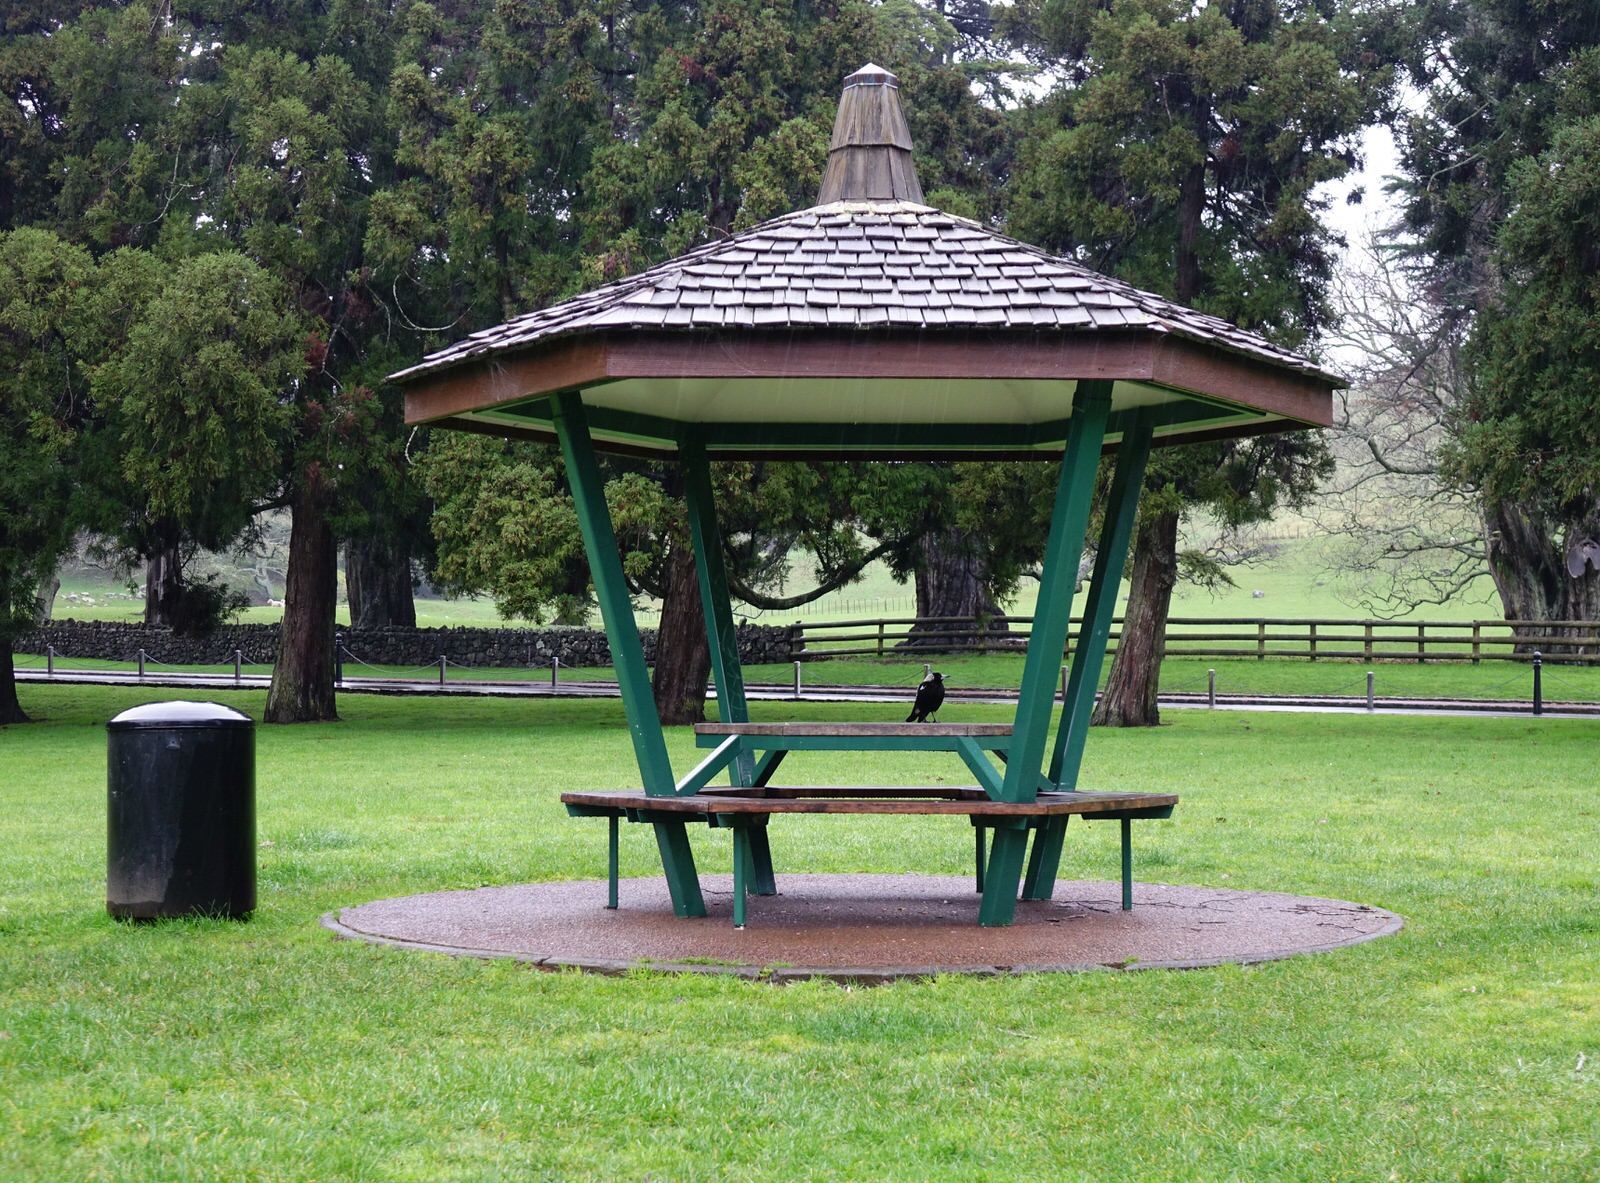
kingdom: Animalia
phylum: Chordata
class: Aves
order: Passeriformes
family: Cracticidae
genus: Gymnorhina
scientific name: Gymnorhina tibicen
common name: Australian magpie
